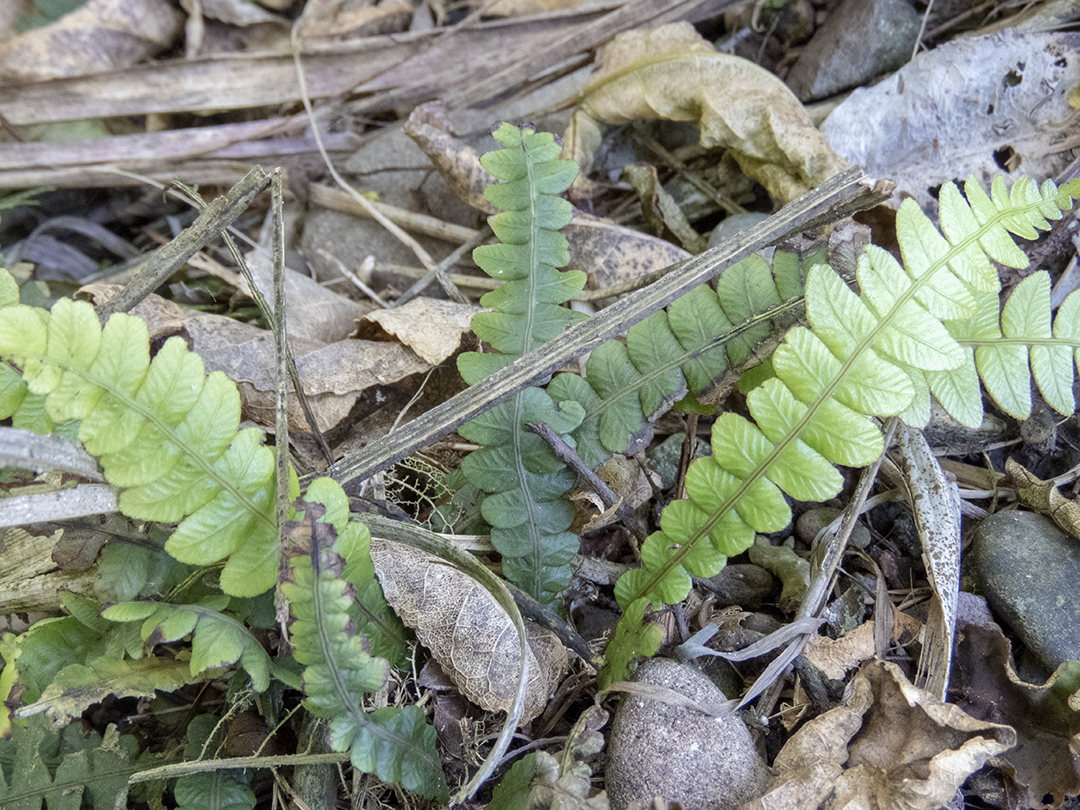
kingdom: Plantae
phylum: Tracheophyta
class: Polypodiopsida
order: Polypodiales
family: Blechnaceae
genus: Austroblechnum
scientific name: Austroblechnum penna-marina
